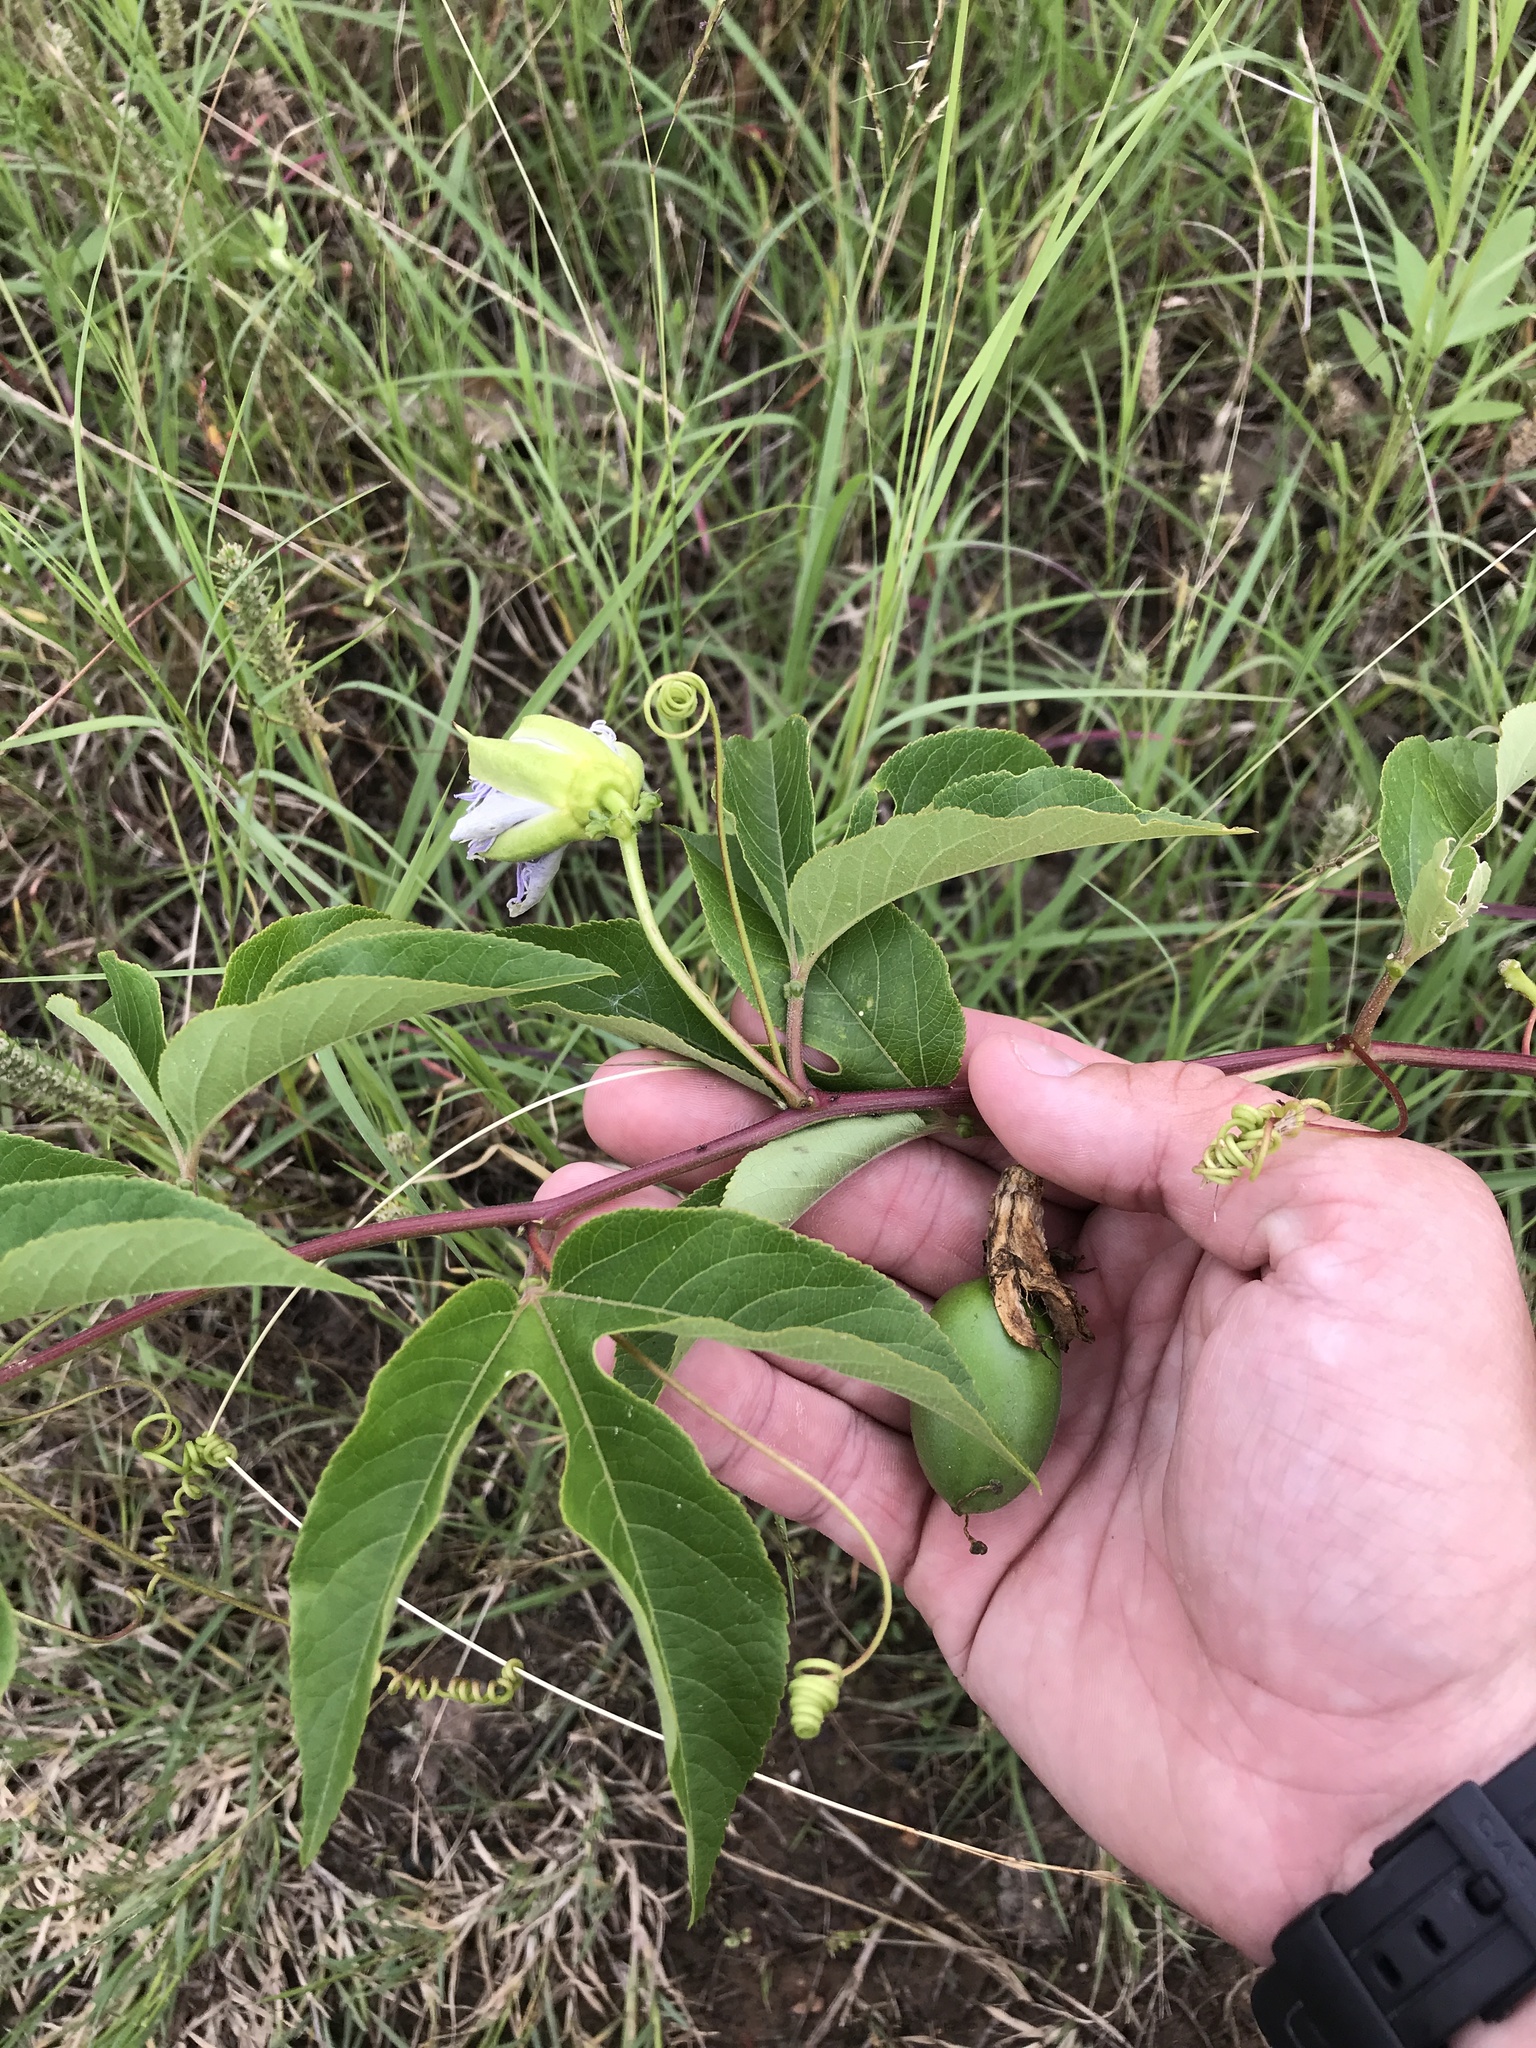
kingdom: Plantae
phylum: Tracheophyta
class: Magnoliopsida
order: Malpighiales
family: Passifloraceae
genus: Passiflora
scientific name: Passiflora incarnata
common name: Apricot-vine
